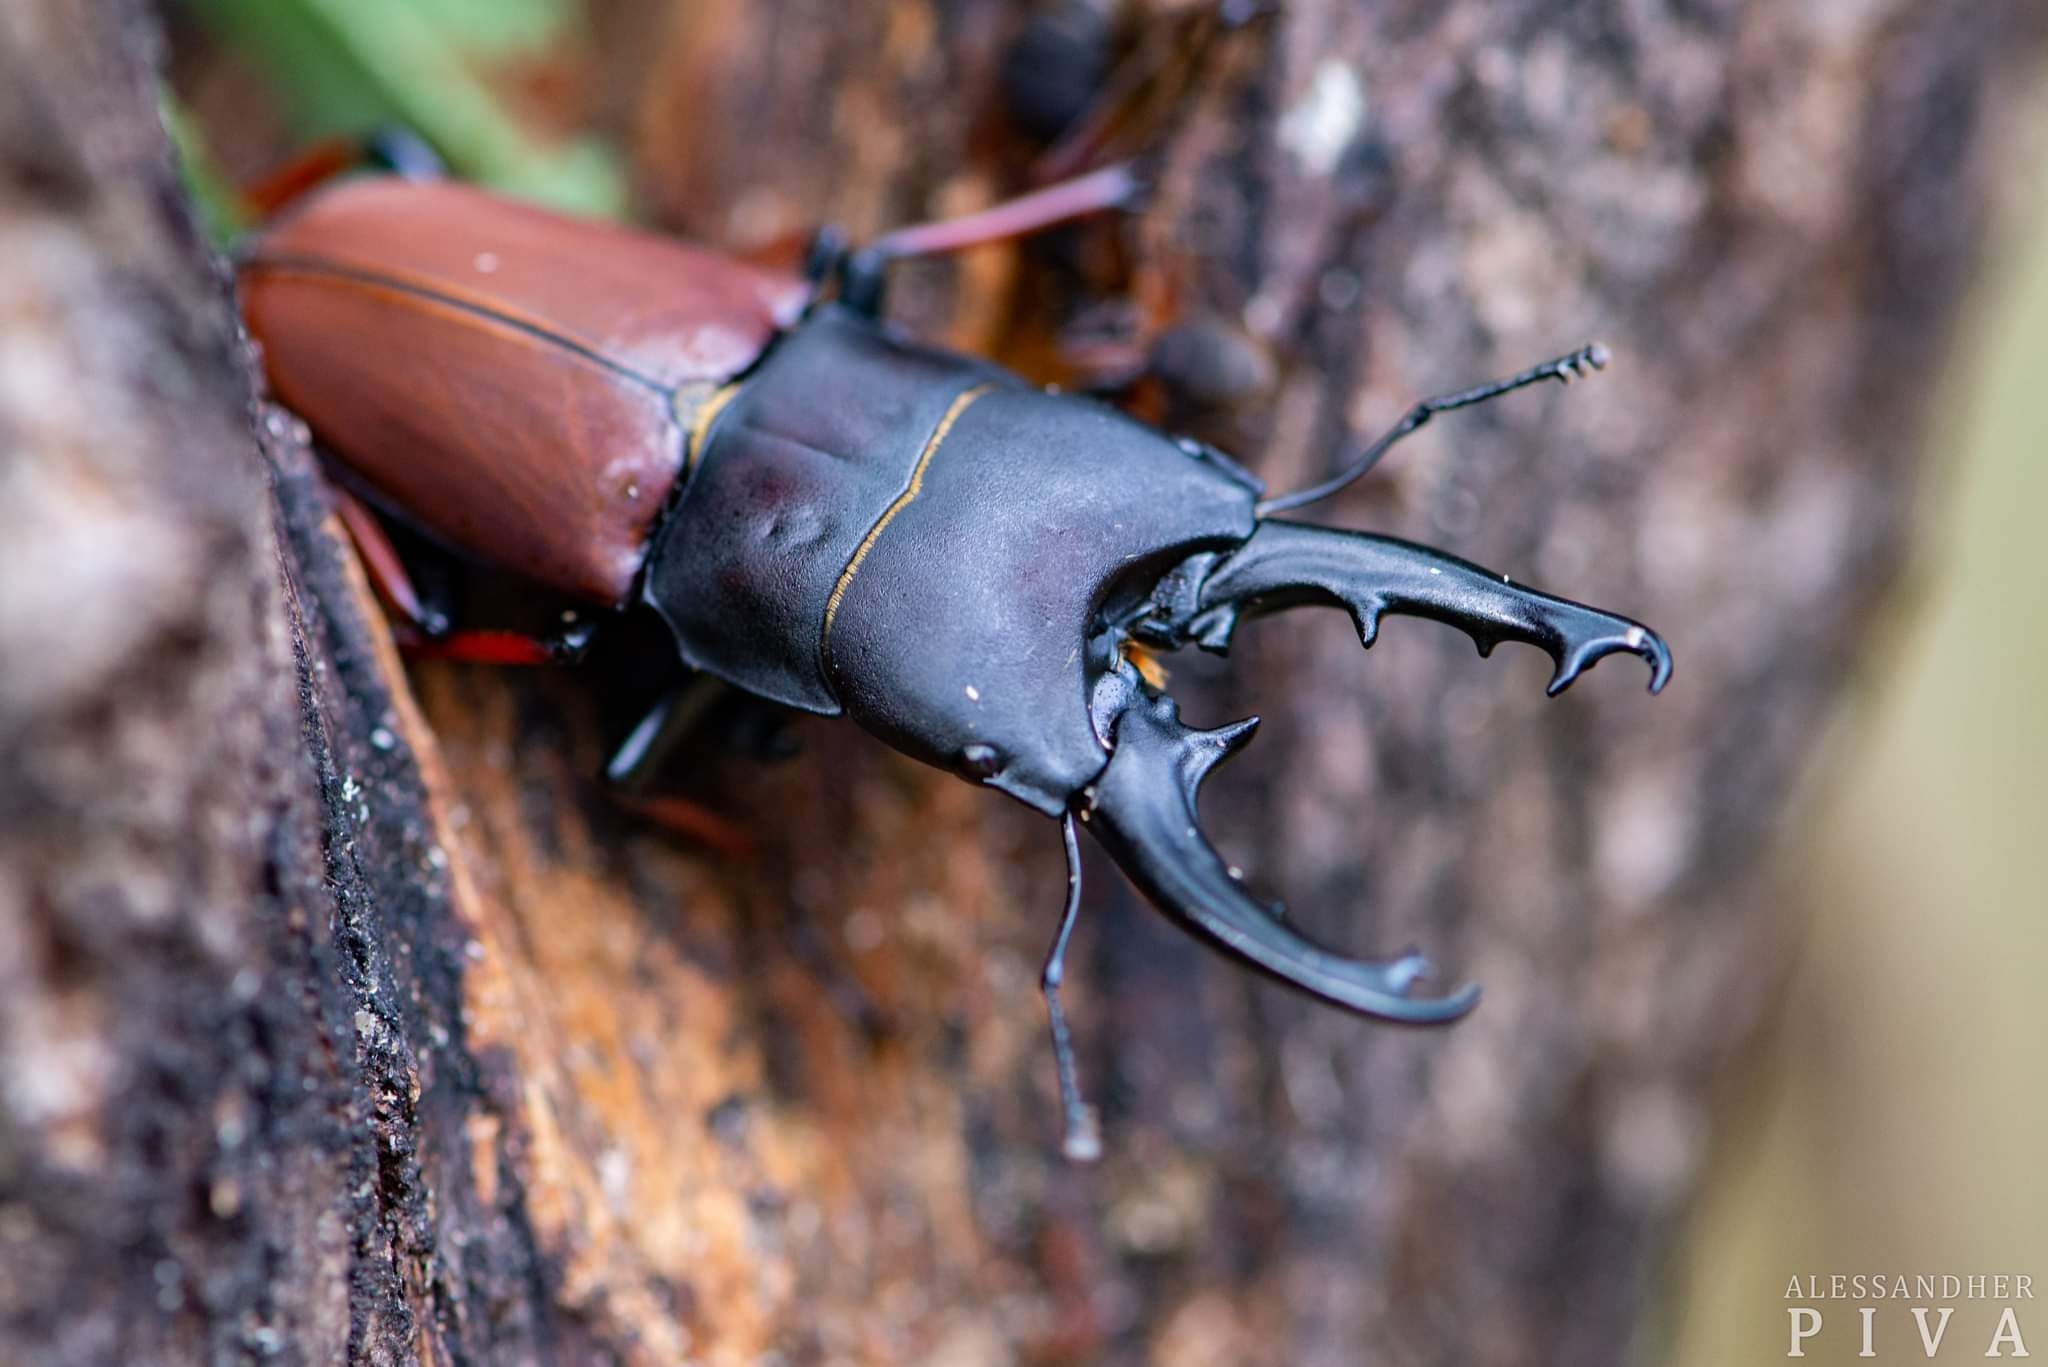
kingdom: Animalia
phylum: Arthropoda
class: Insecta
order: Coleoptera
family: Lucanidae
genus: Leptinopterus
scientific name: Leptinopterus tibialis
